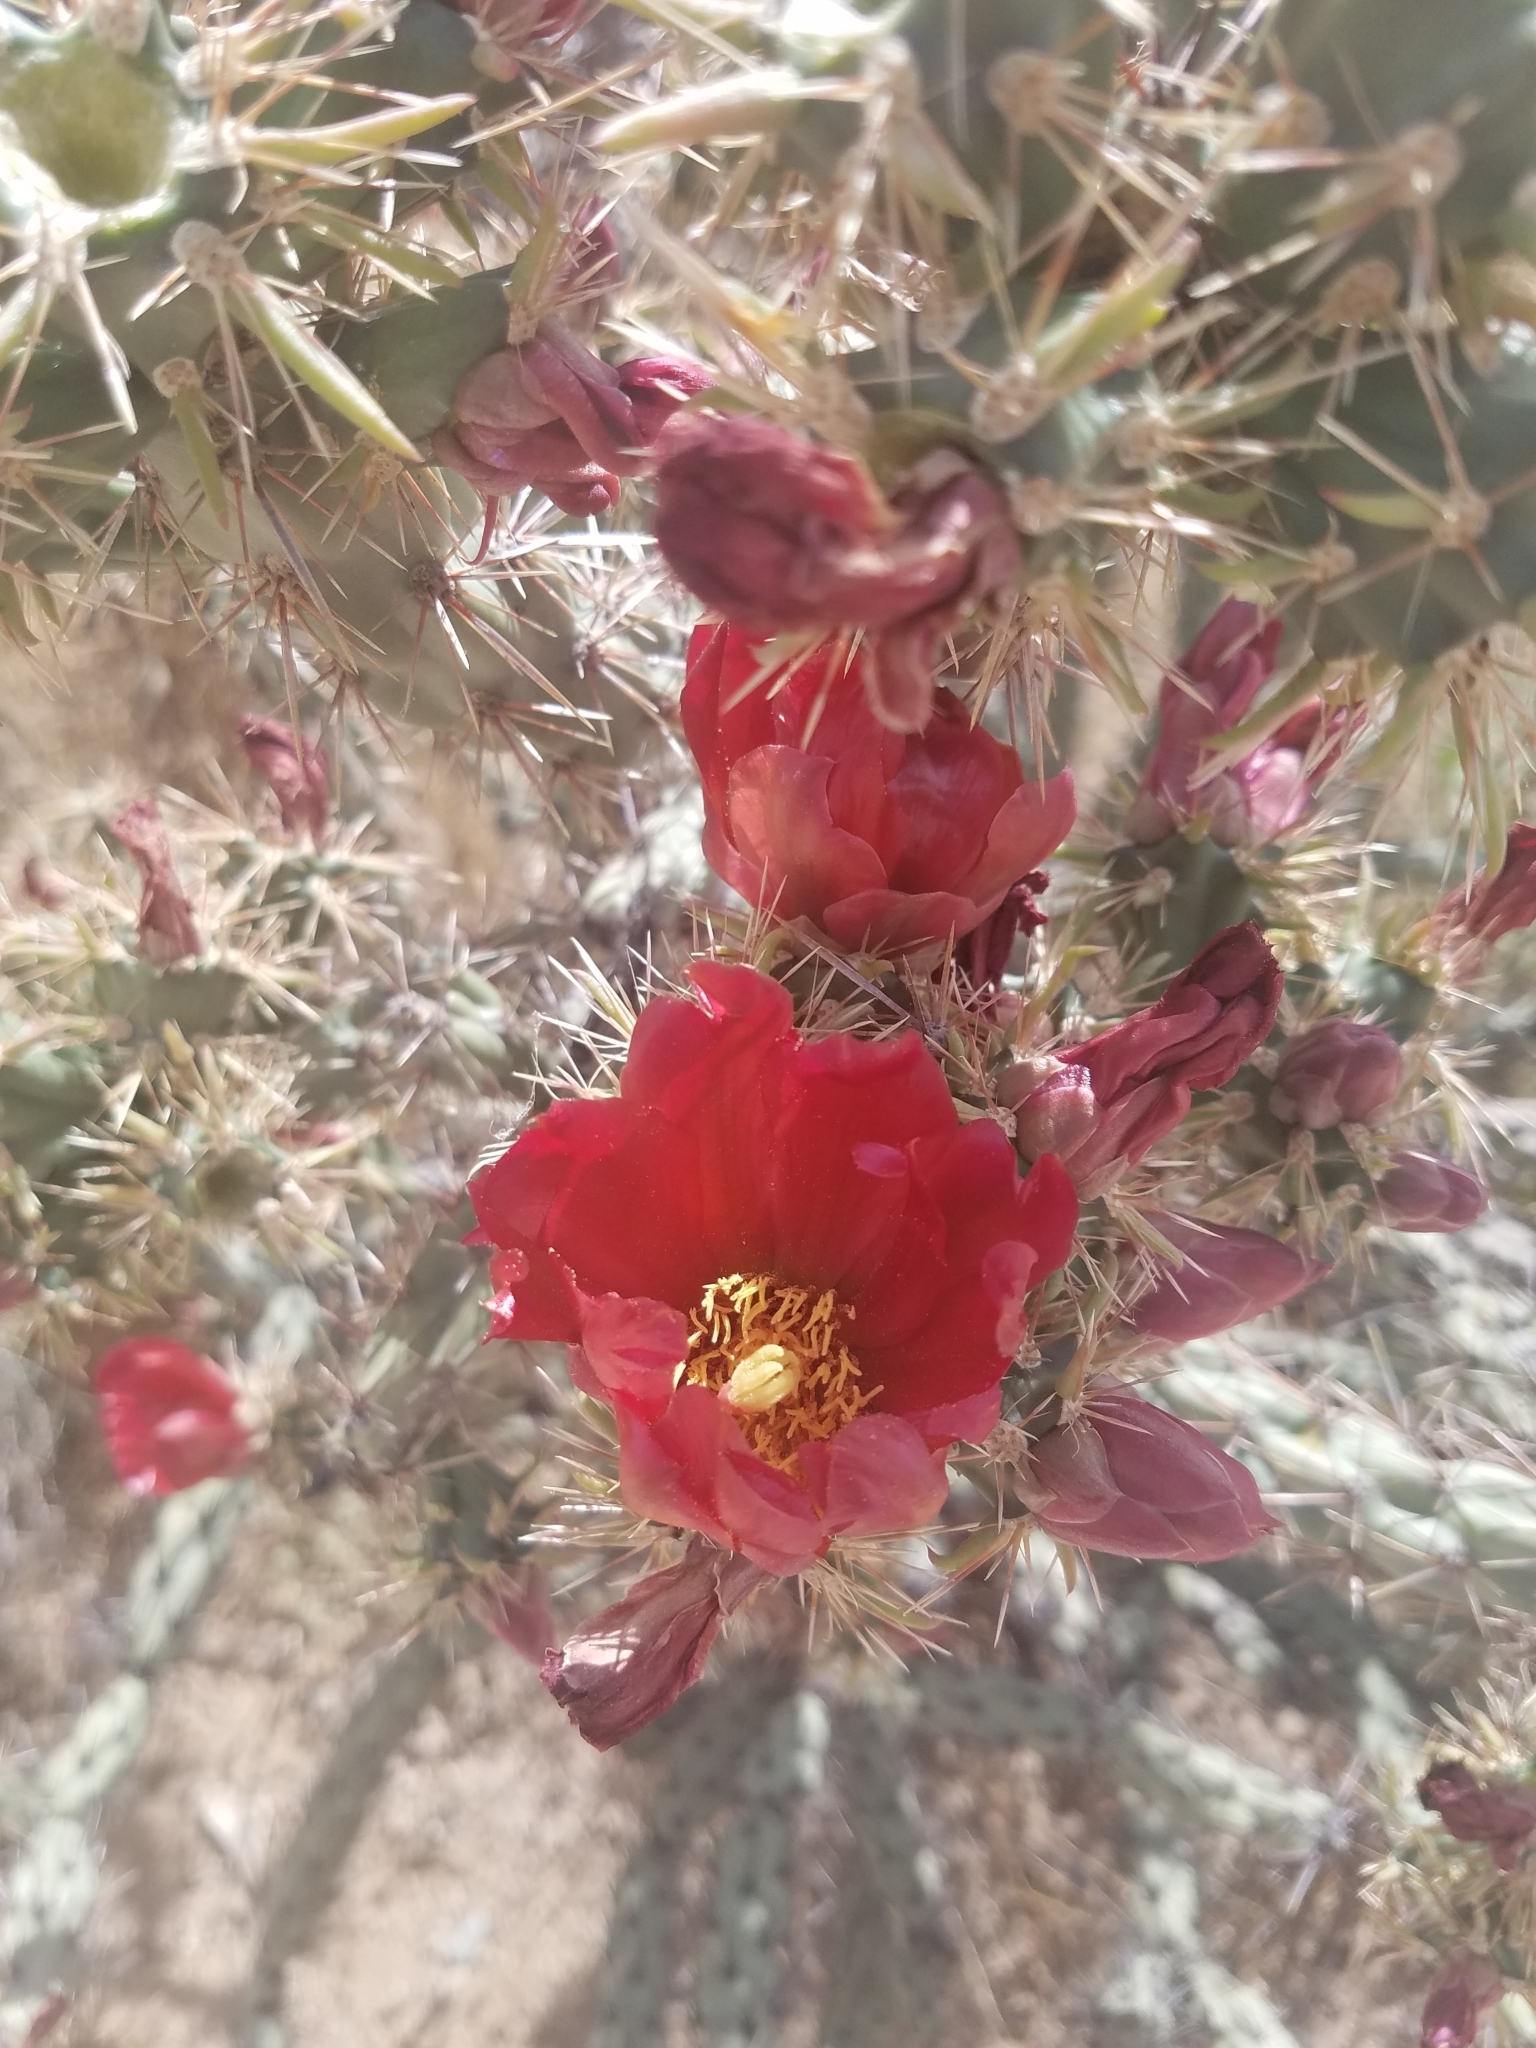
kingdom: Plantae
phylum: Tracheophyta
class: Magnoliopsida
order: Caryophyllales
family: Cactaceae
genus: Cylindropuntia
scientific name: Cylindropuntia acanthocarpa
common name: Buckhorn cholla
